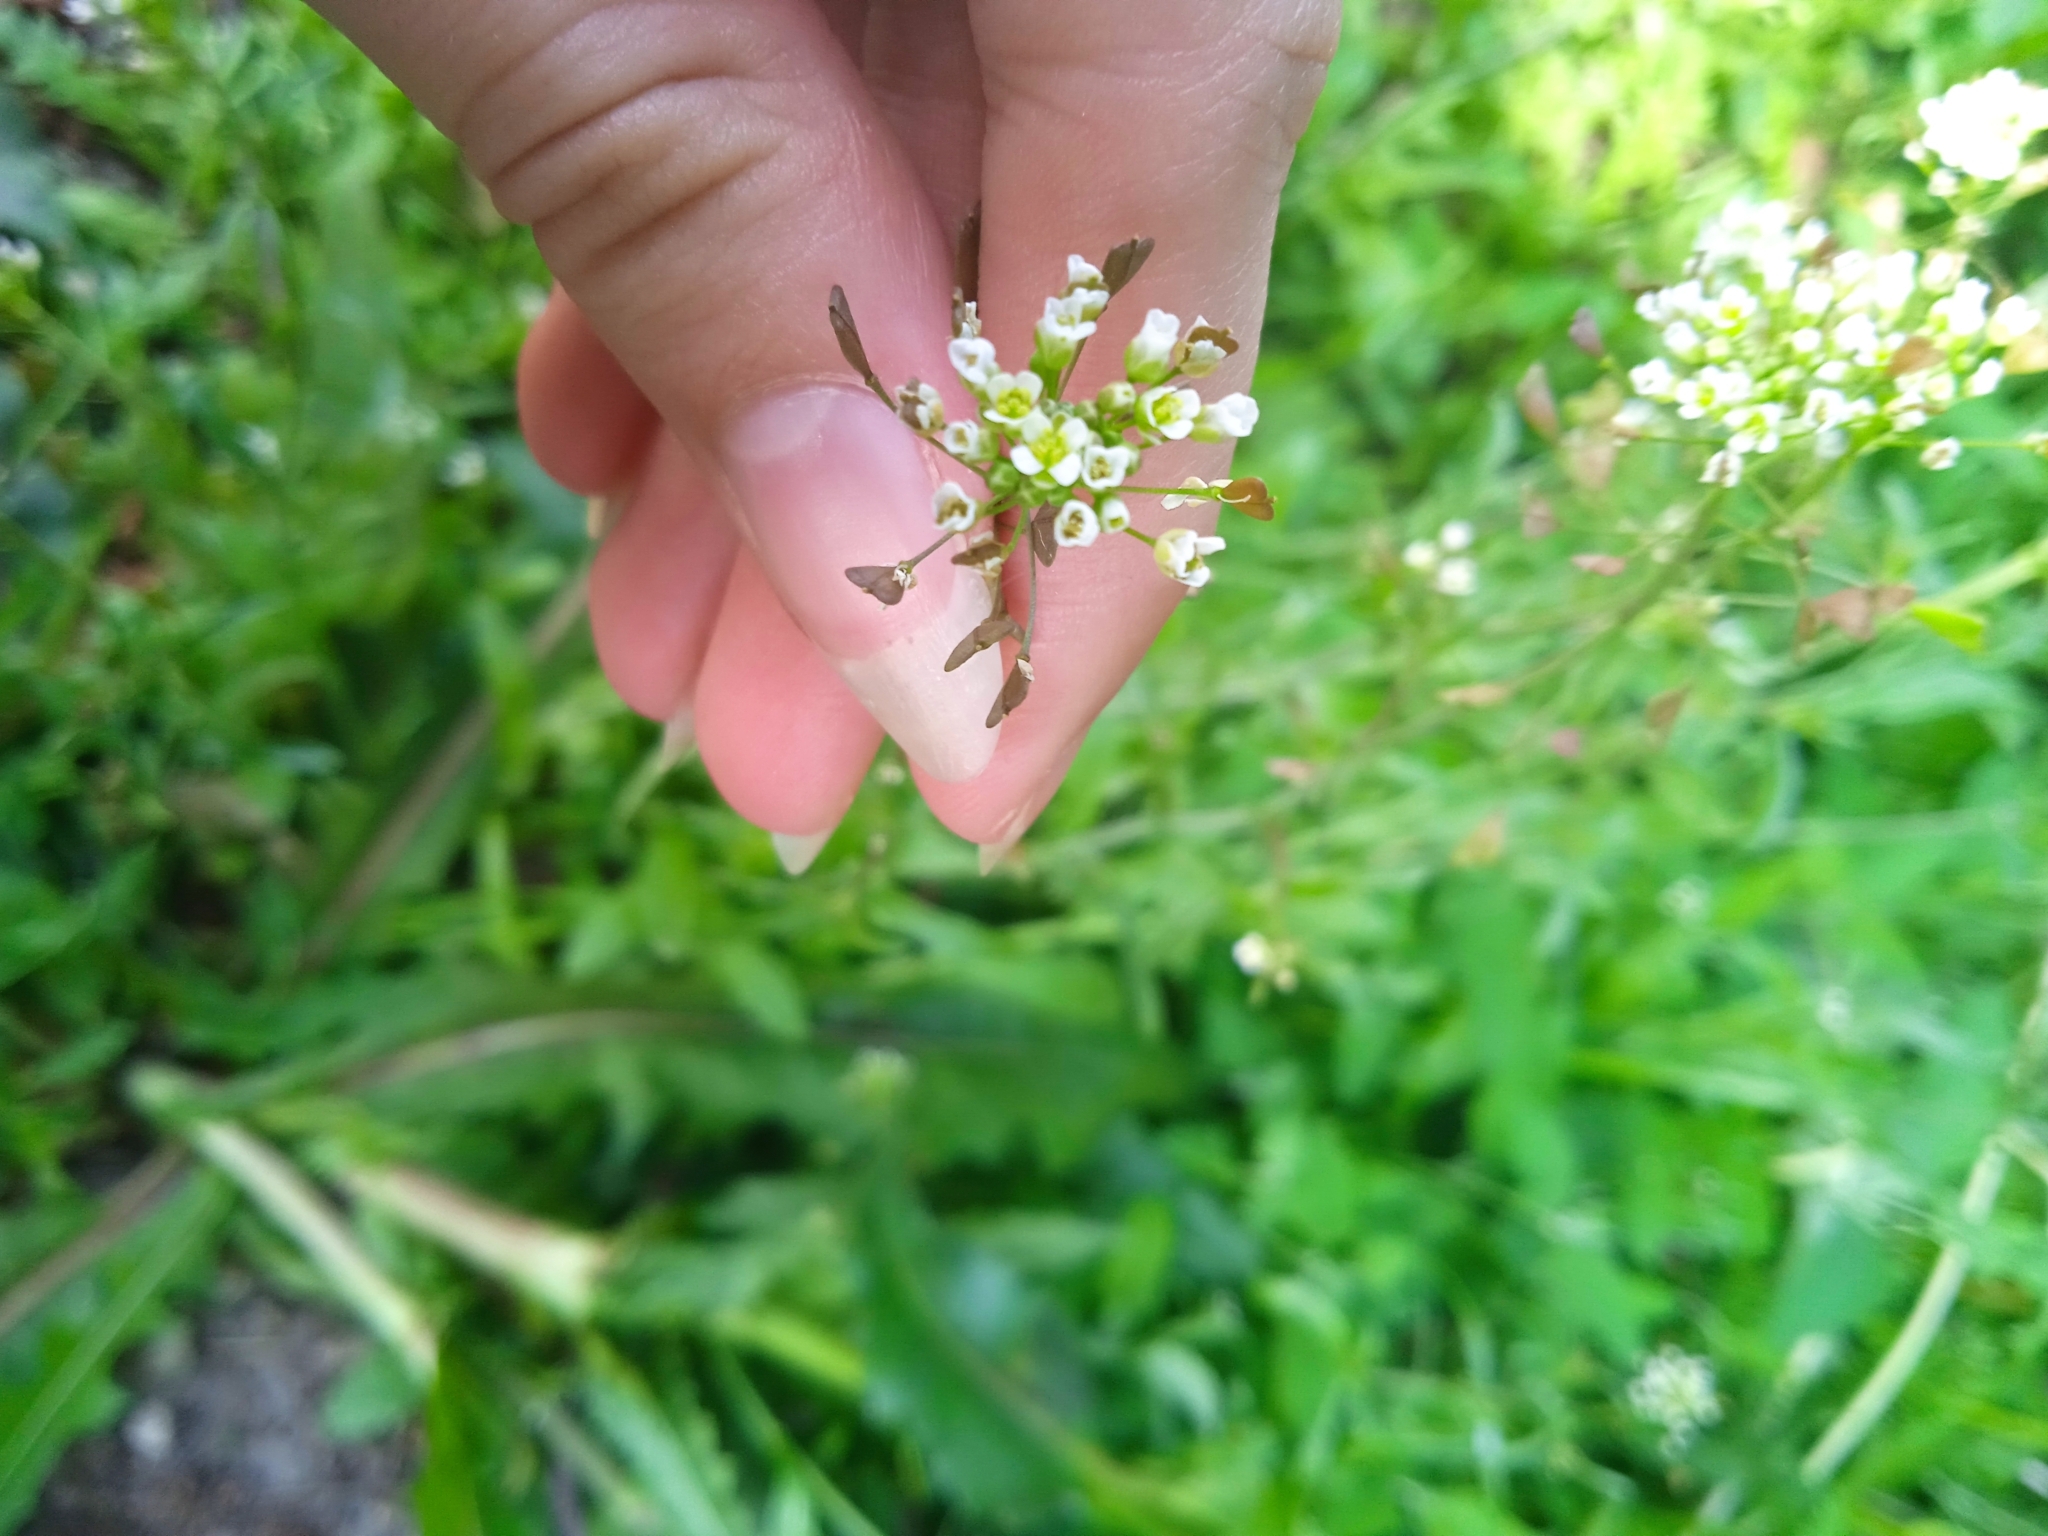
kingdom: Plantae
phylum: Tracheophyta
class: Magnoliopsida
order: Brassicales
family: Brassicaceae
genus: Capsella
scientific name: Capsella bursa-pastoris
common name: Shepherd's purse
